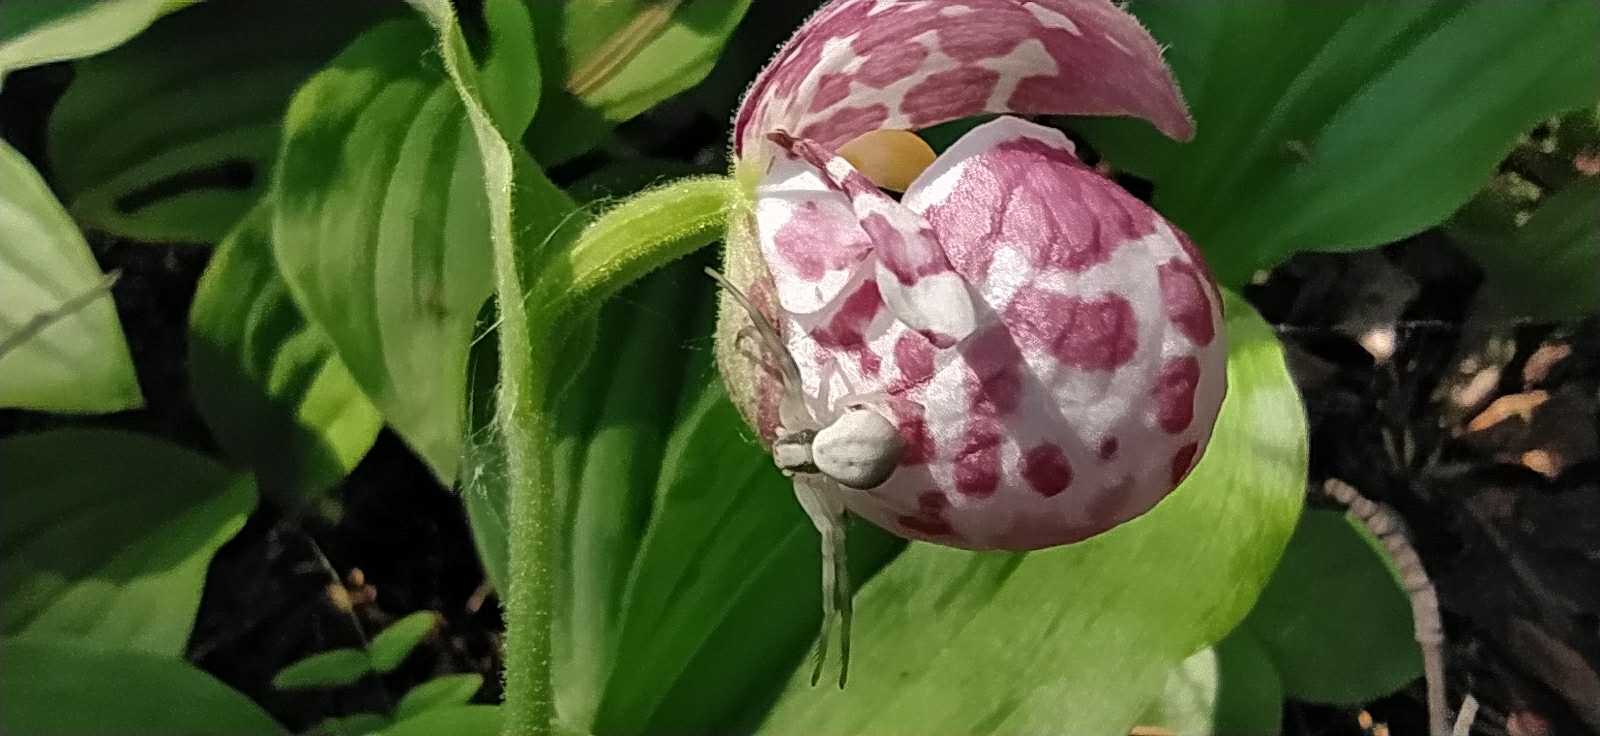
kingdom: Animalia
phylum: Arthropoda
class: Arachnida
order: Araneae
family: Thomisidae
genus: Misumena
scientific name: Misumena vatia
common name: Goldenrod crab spider
